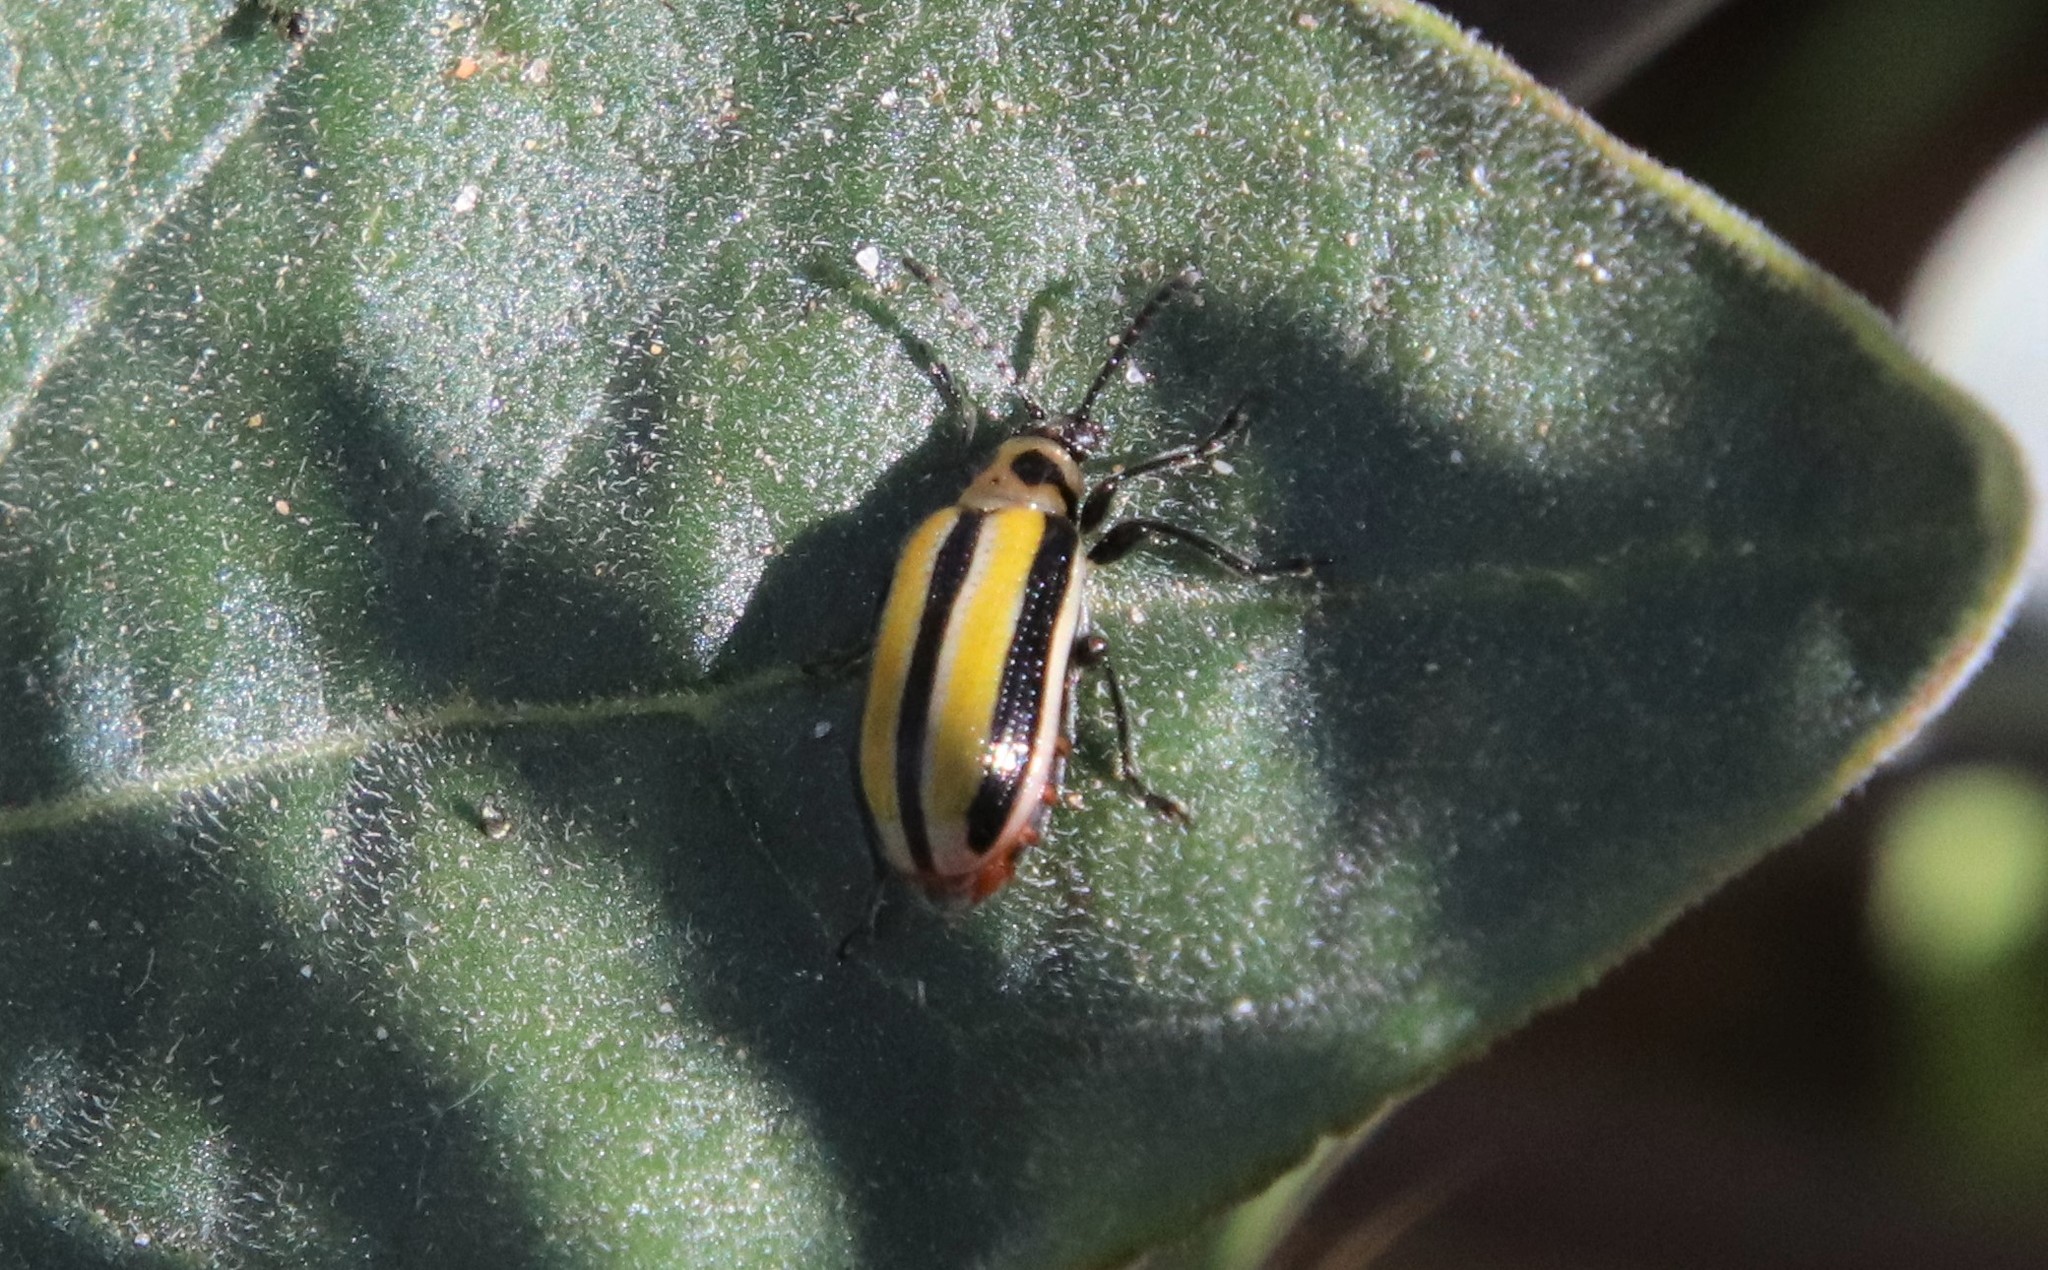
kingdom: Animalia
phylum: Arthropoda
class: Insecta
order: Coleoptera
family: Chrysomelidae
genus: Lema
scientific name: Lema daturaphila
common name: Leaf beetle
